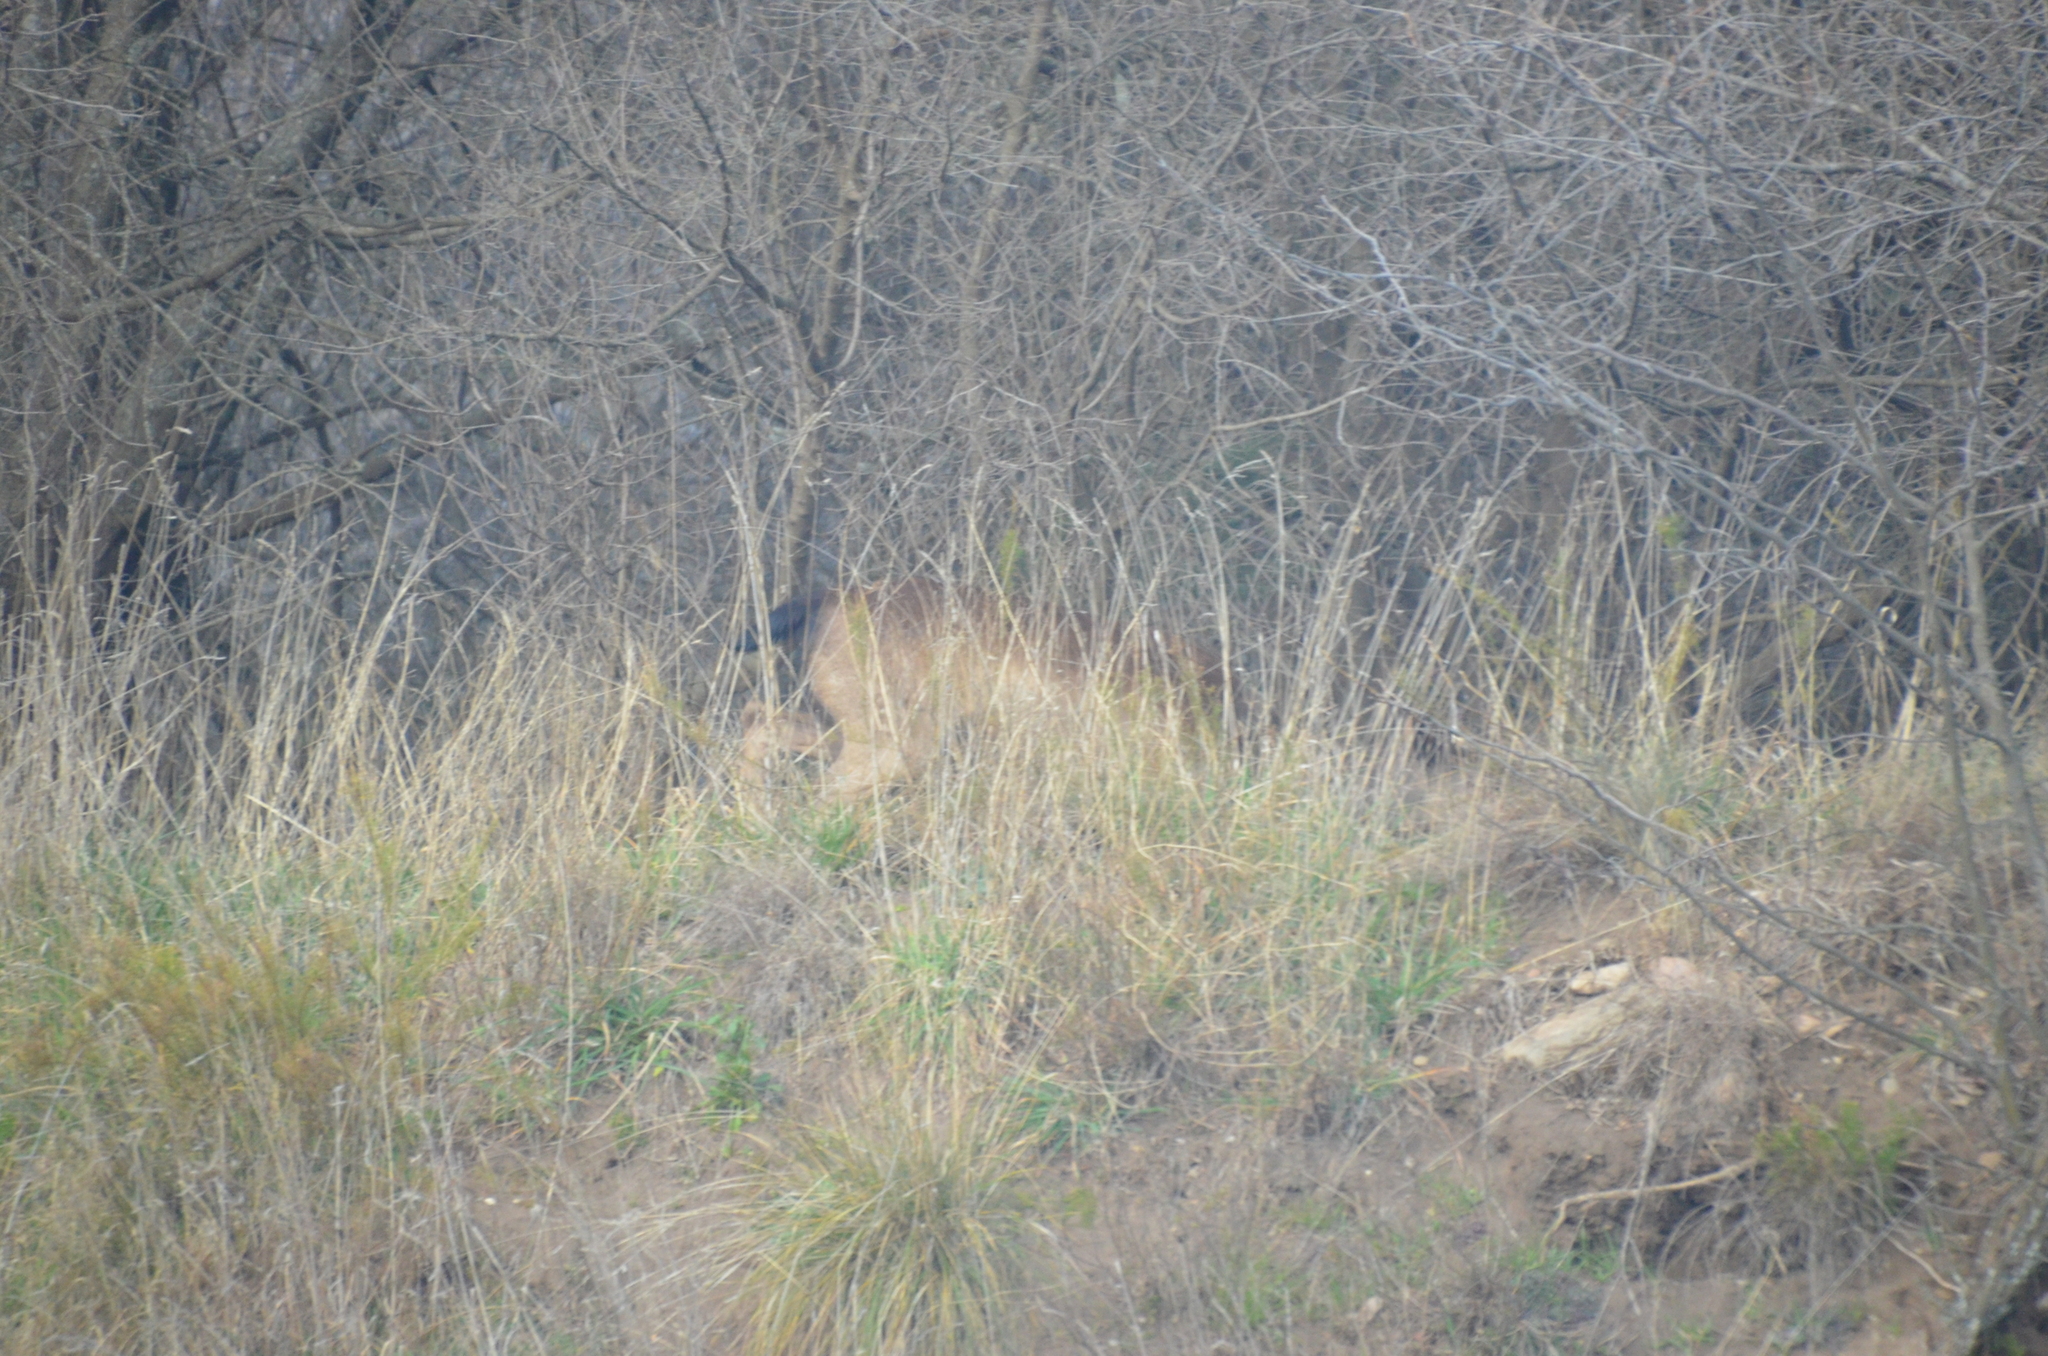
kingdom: Animalia
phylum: Chordata
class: Mammalia
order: Artiodactyla
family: Cervidae
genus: Cervus
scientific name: Cervus elaphus
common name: Red deer
